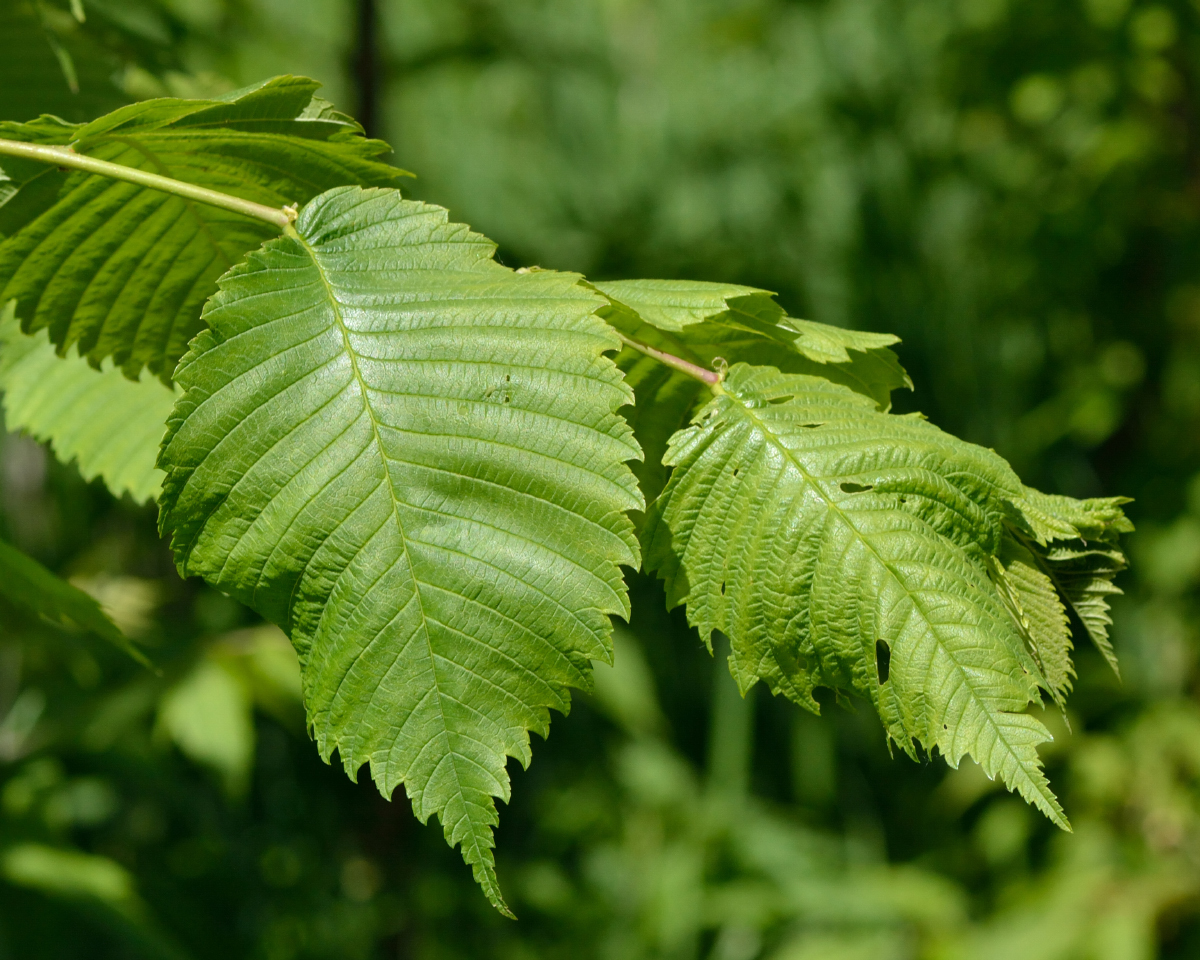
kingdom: Plantae
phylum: Tracheophyta
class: Magnoliopsida
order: Rosales
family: Ulmaceae
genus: Ulmus
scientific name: Ulmus laevis
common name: European white-elm
